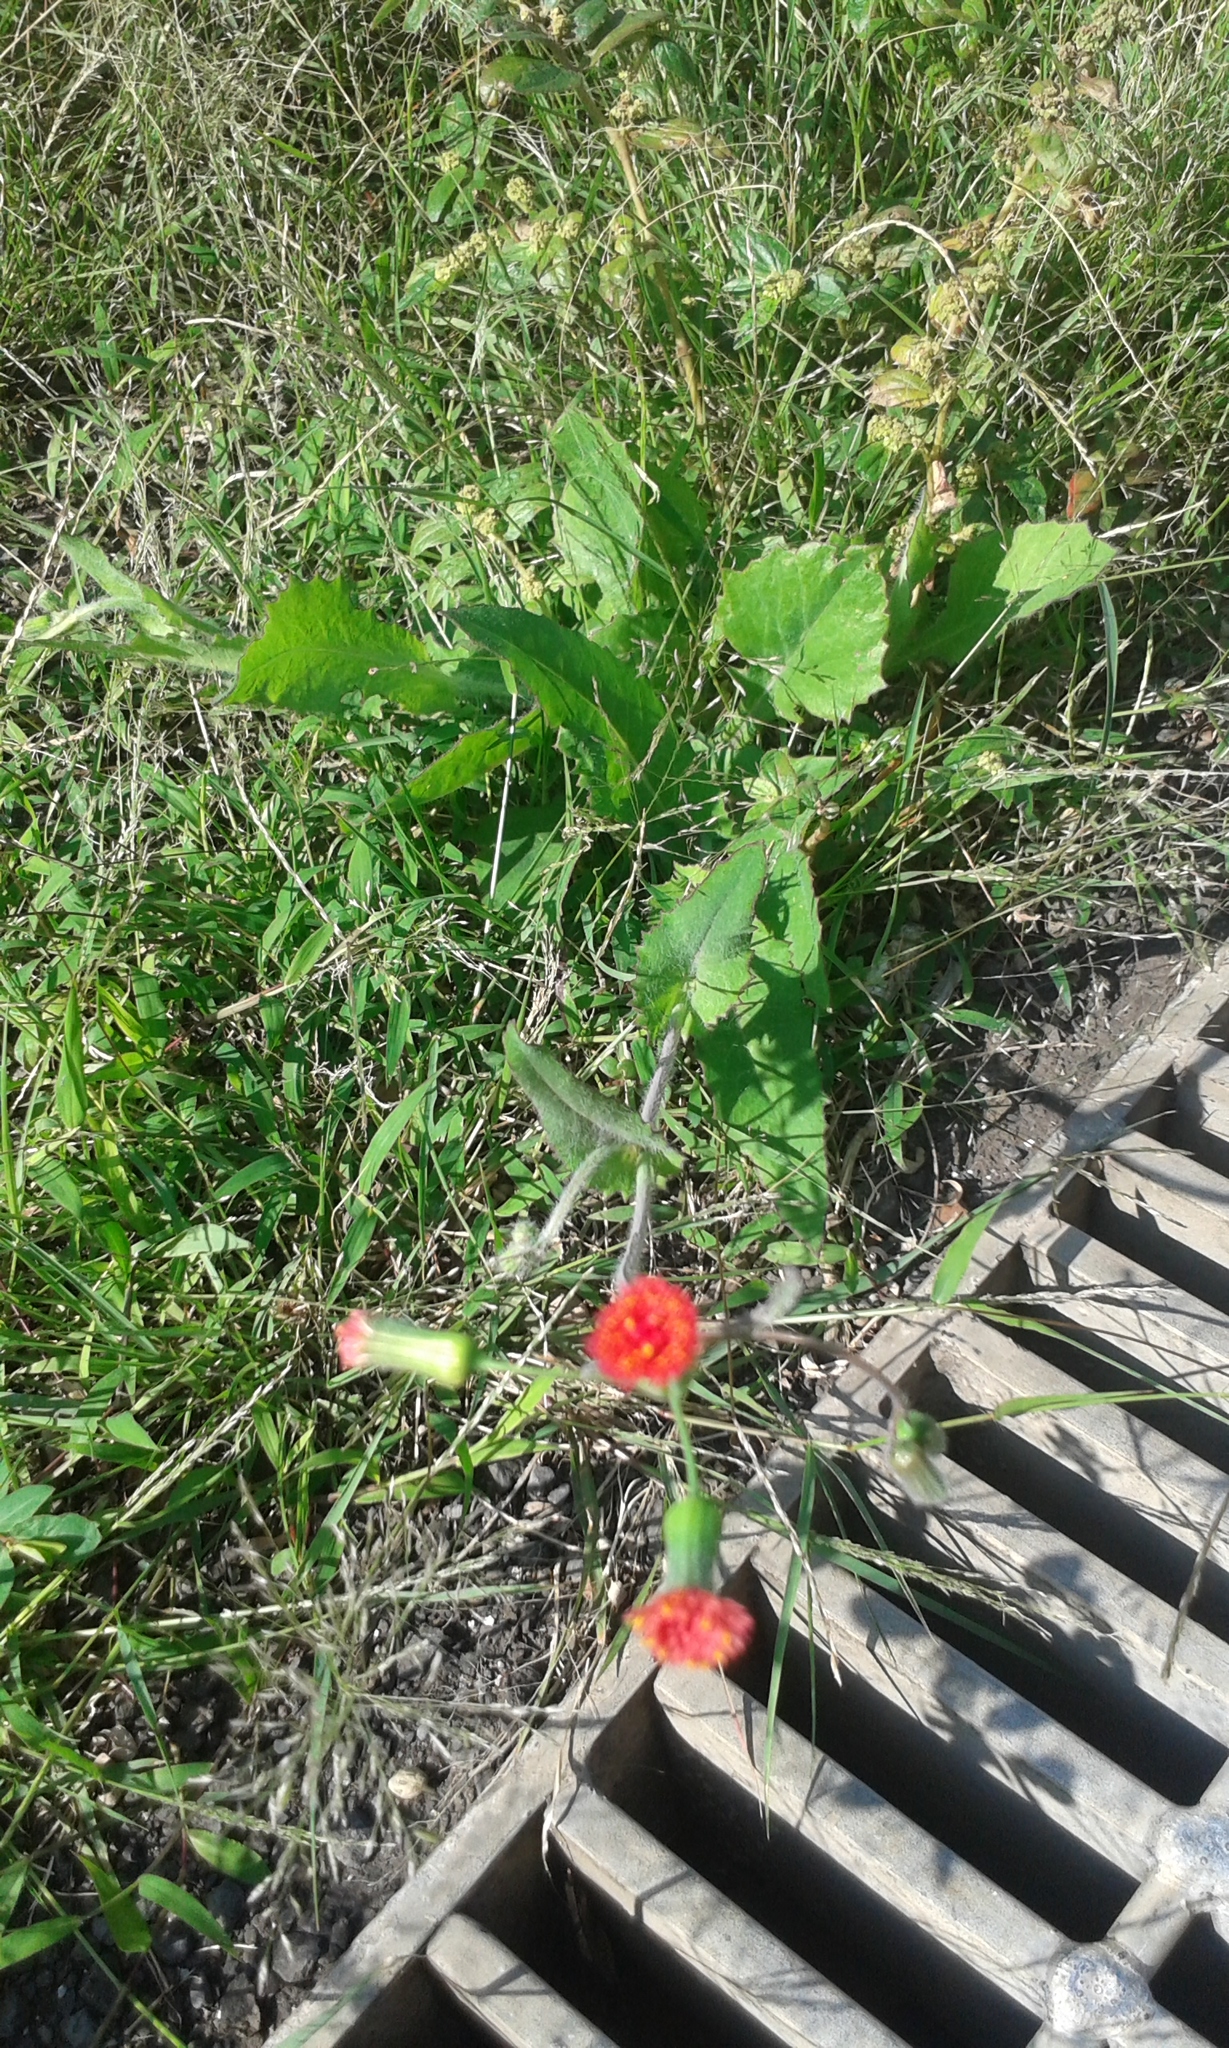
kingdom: Plantae
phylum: Tracheophyta
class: Magnoliopsida
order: Asterales
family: Asteraceae
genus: Emilia
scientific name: Emilia fosbergii
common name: Florida tasselflower
